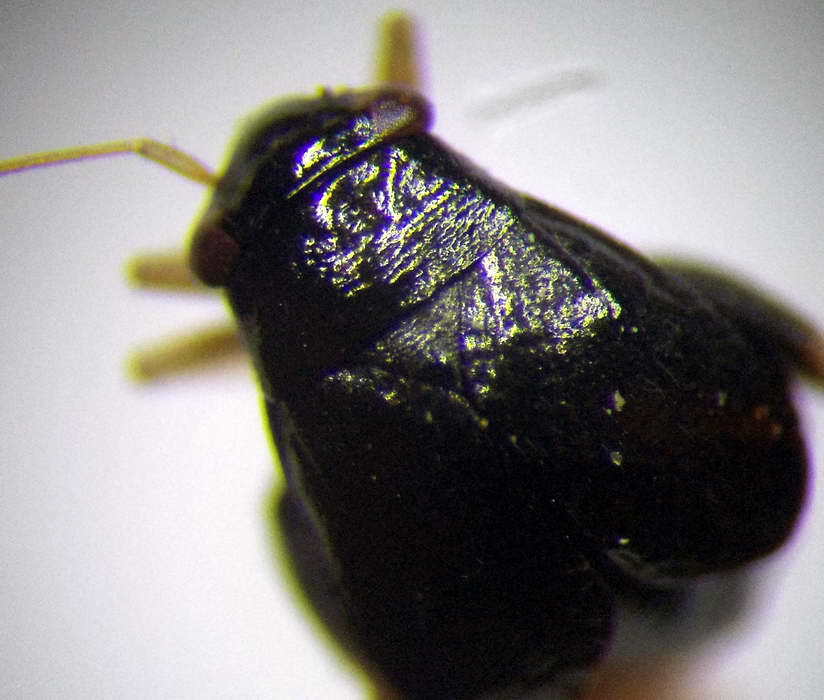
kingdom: Animalia
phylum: Arthropoda
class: Insecta
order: Hemiptera
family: Miridae
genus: Halticus
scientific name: Halticus apterus
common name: Fleahopper
